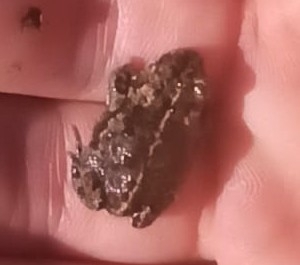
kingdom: Animalia
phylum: Chordata
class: Amphibia
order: Anura
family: Bufonidae
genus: Epidalea
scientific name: Epidalea calamita
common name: Natterjack toad
